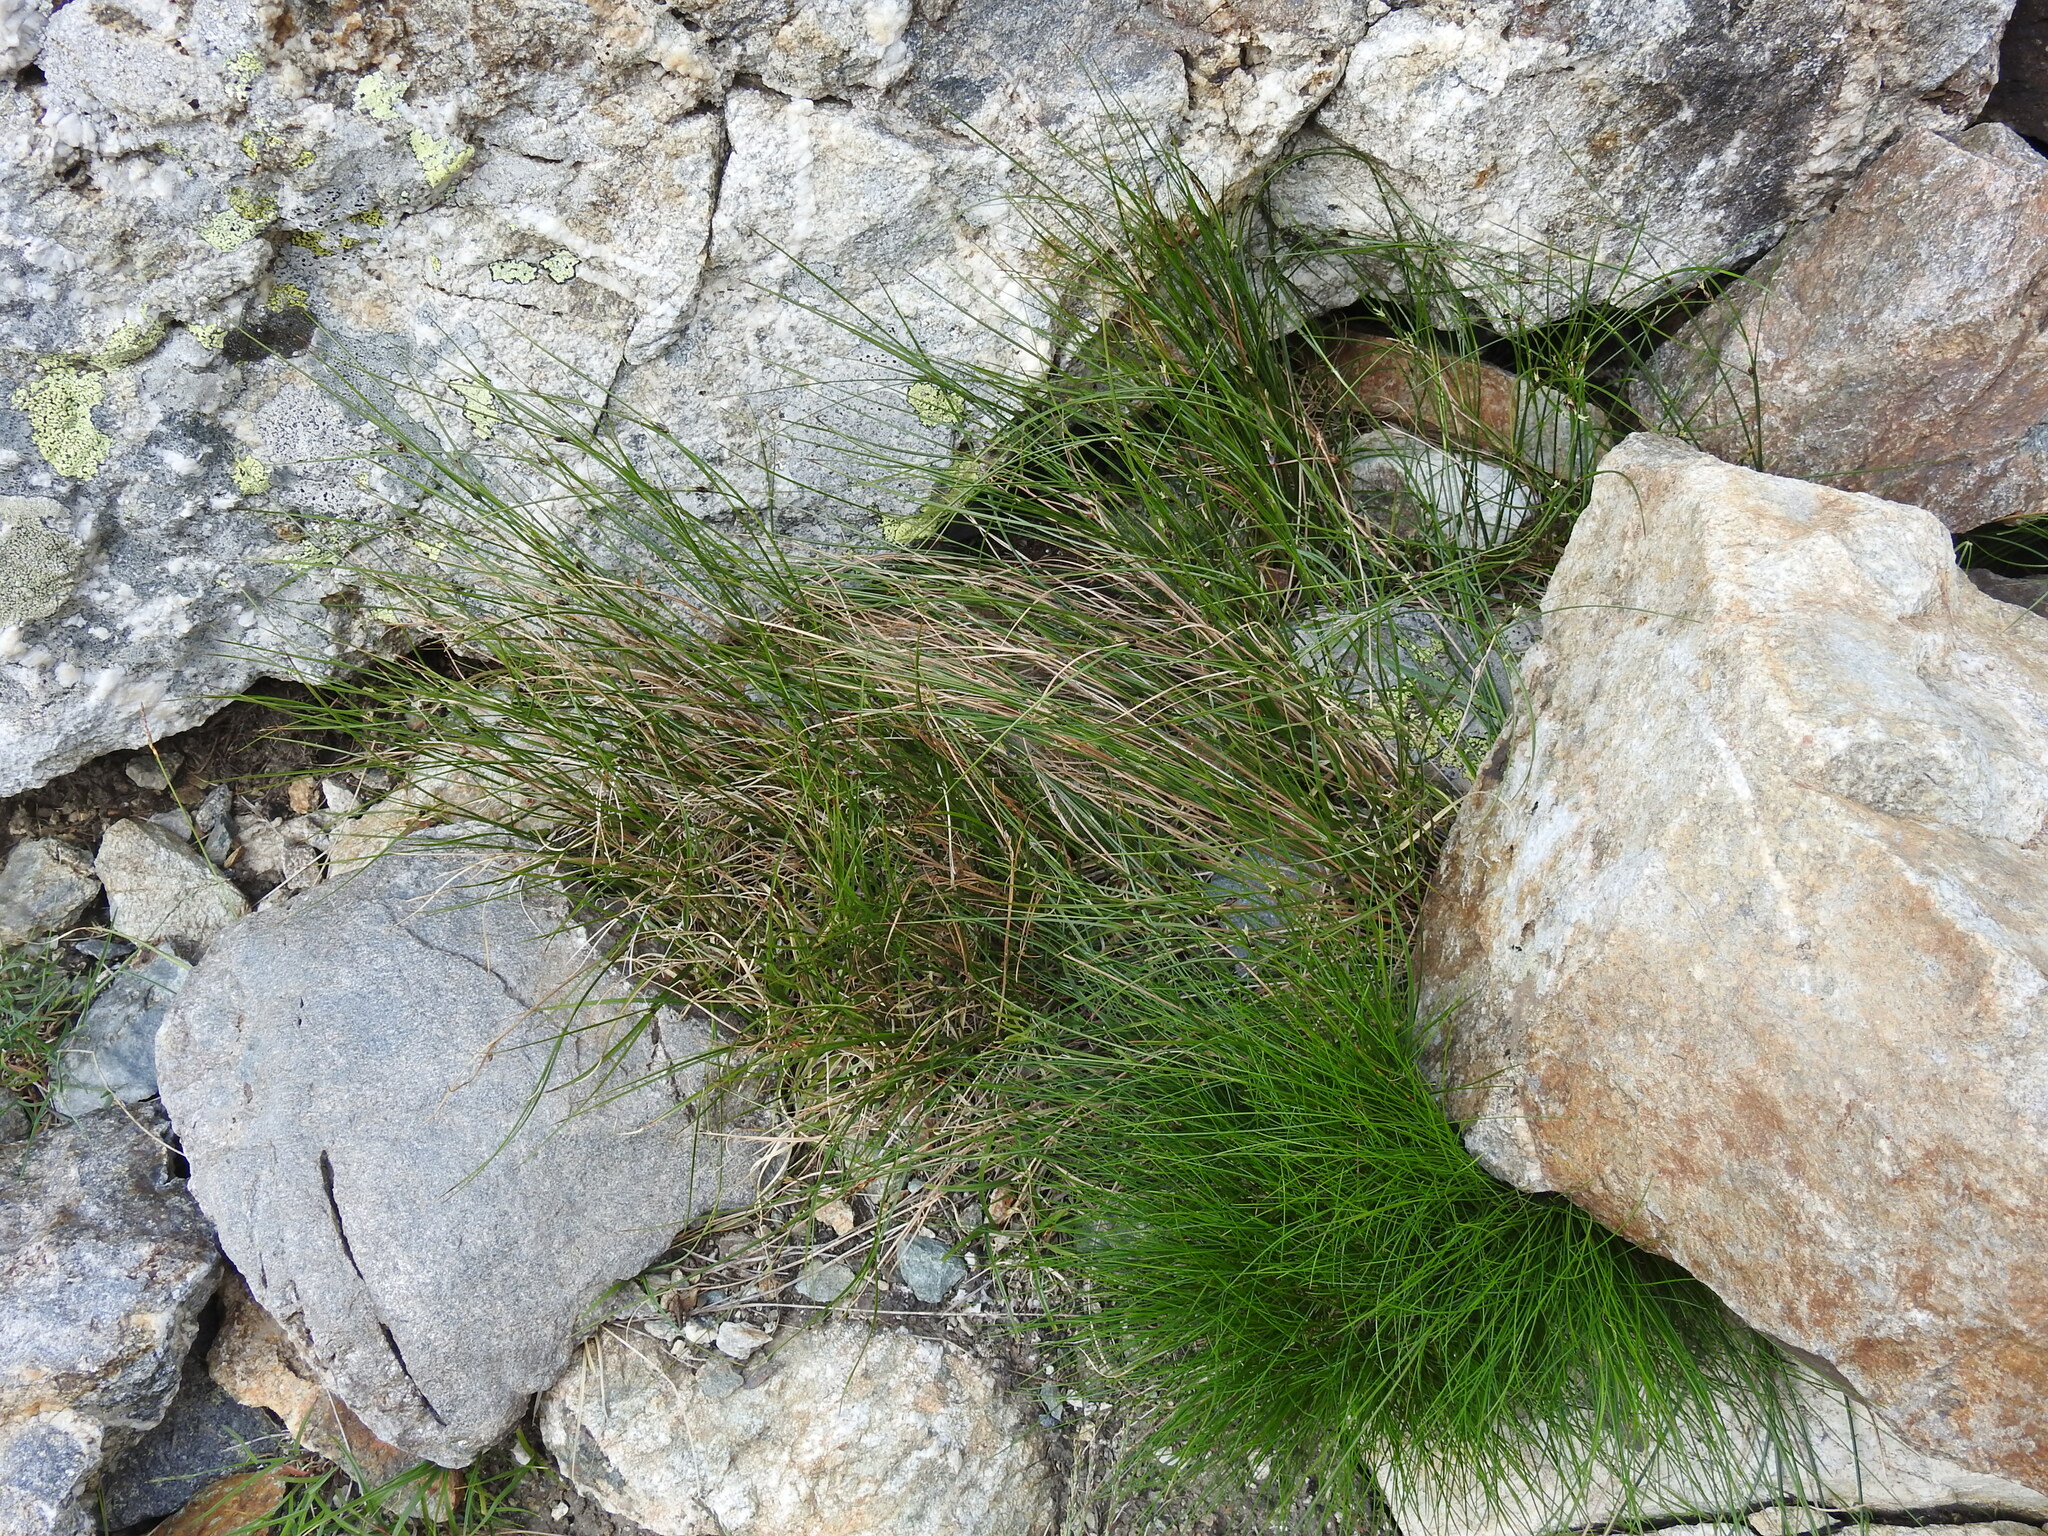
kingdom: Plantae
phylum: Tracheophyta
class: Liliopsida
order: Poales
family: Juncaceae
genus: Oreojuncus
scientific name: Oreojuncus trifidus
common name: Highland rush
